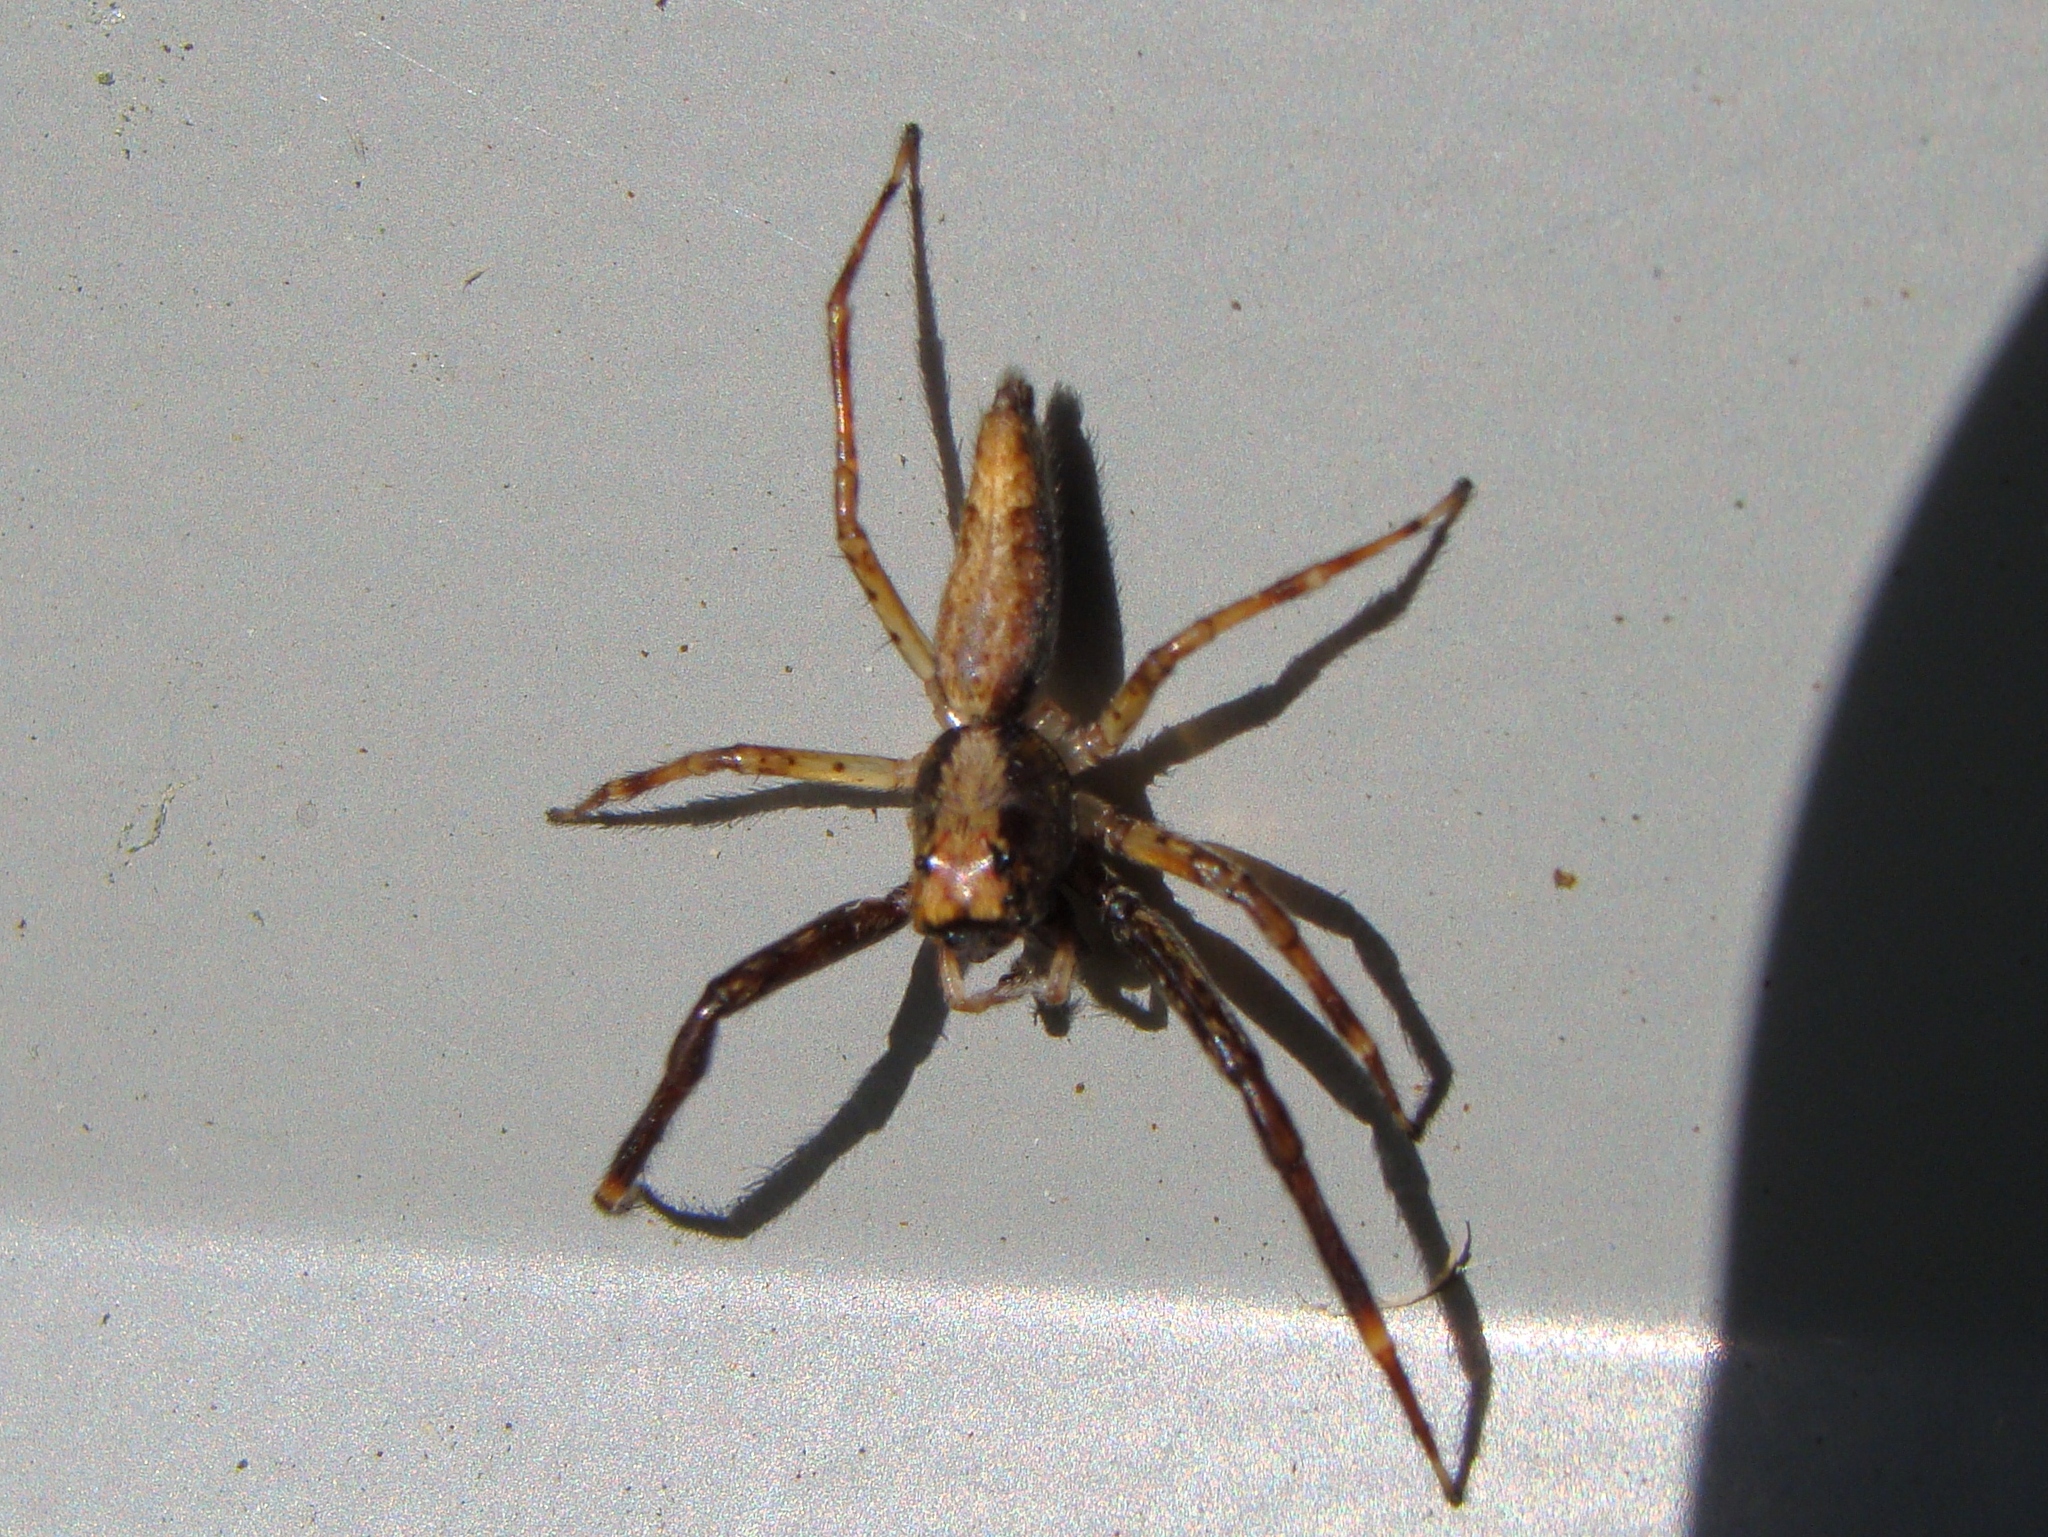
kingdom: Animalia
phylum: Arthropoda
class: Arachnida
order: Araneae
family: Salticidae
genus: Helpis
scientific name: Helpis minitabunda
